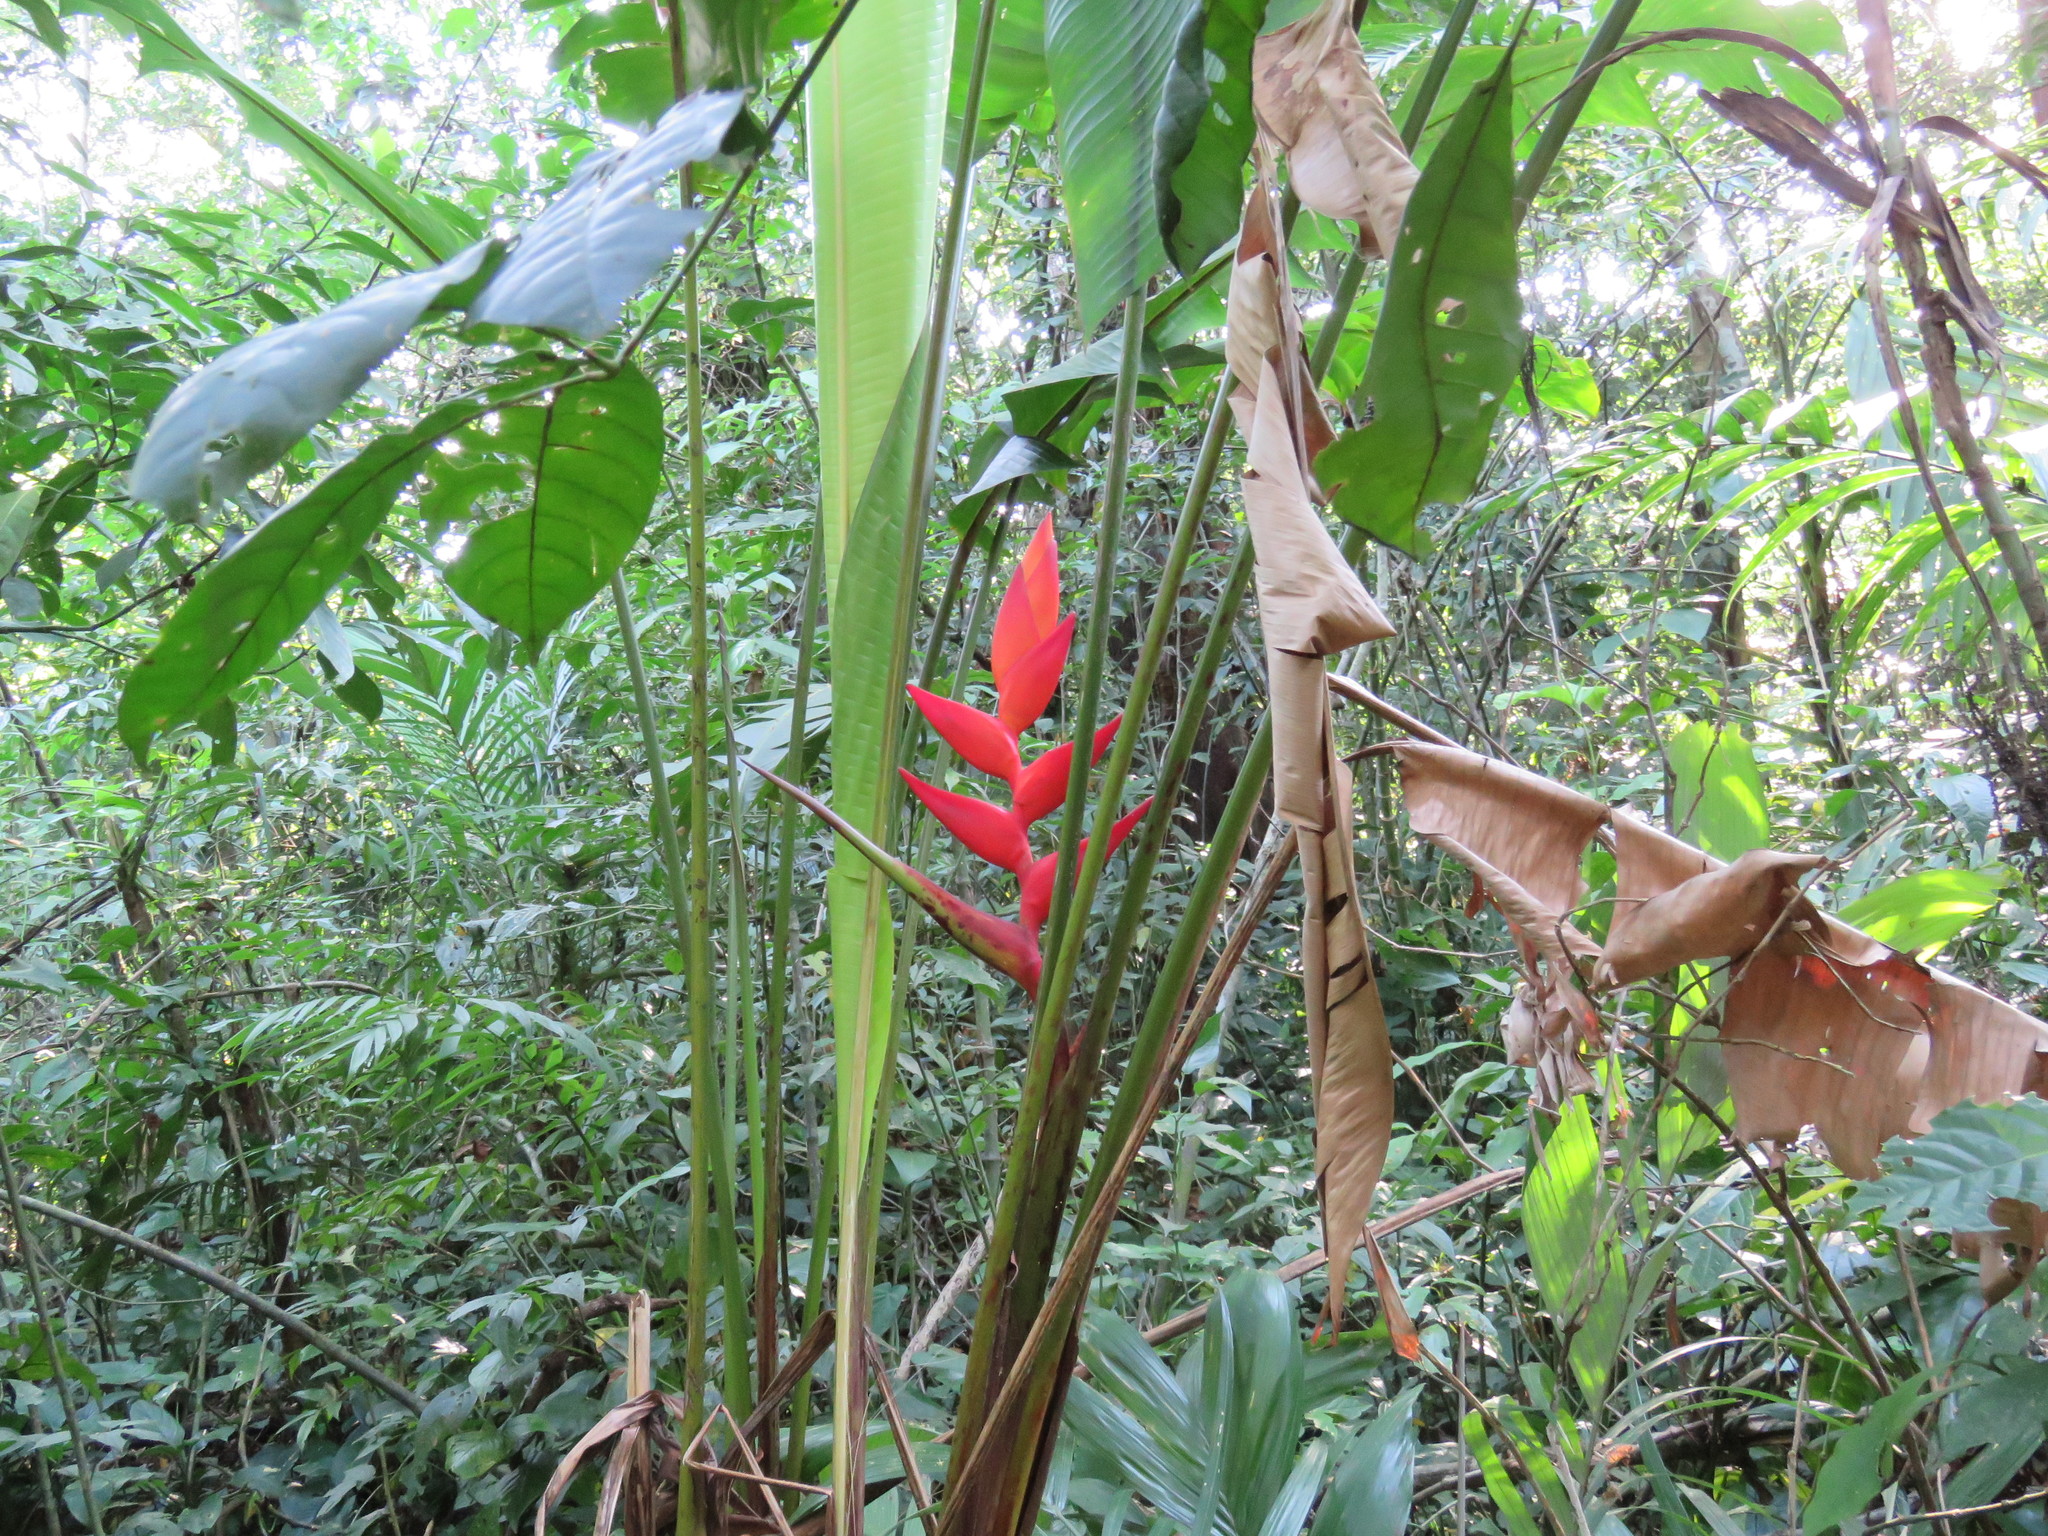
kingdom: Plantae
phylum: Tracheophyta
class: Liliopsida
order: Zingiberales
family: Heliconiaceae
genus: Heliconia
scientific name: Heliconia uxpanapensis
